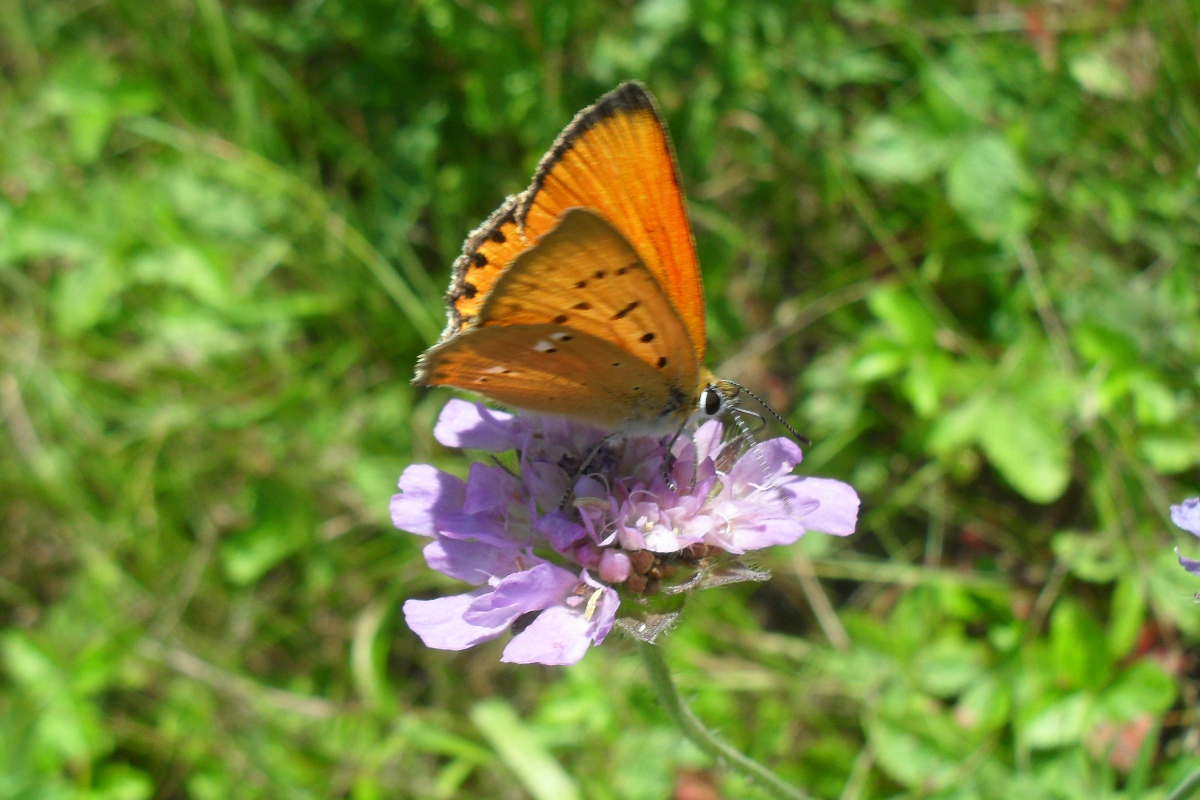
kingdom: Animalia
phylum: Arthropoda
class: Insecta
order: Lepidoptera
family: Lycaenidae
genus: Lycaena
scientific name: Lycaena virgaureae
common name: Scarce copper
